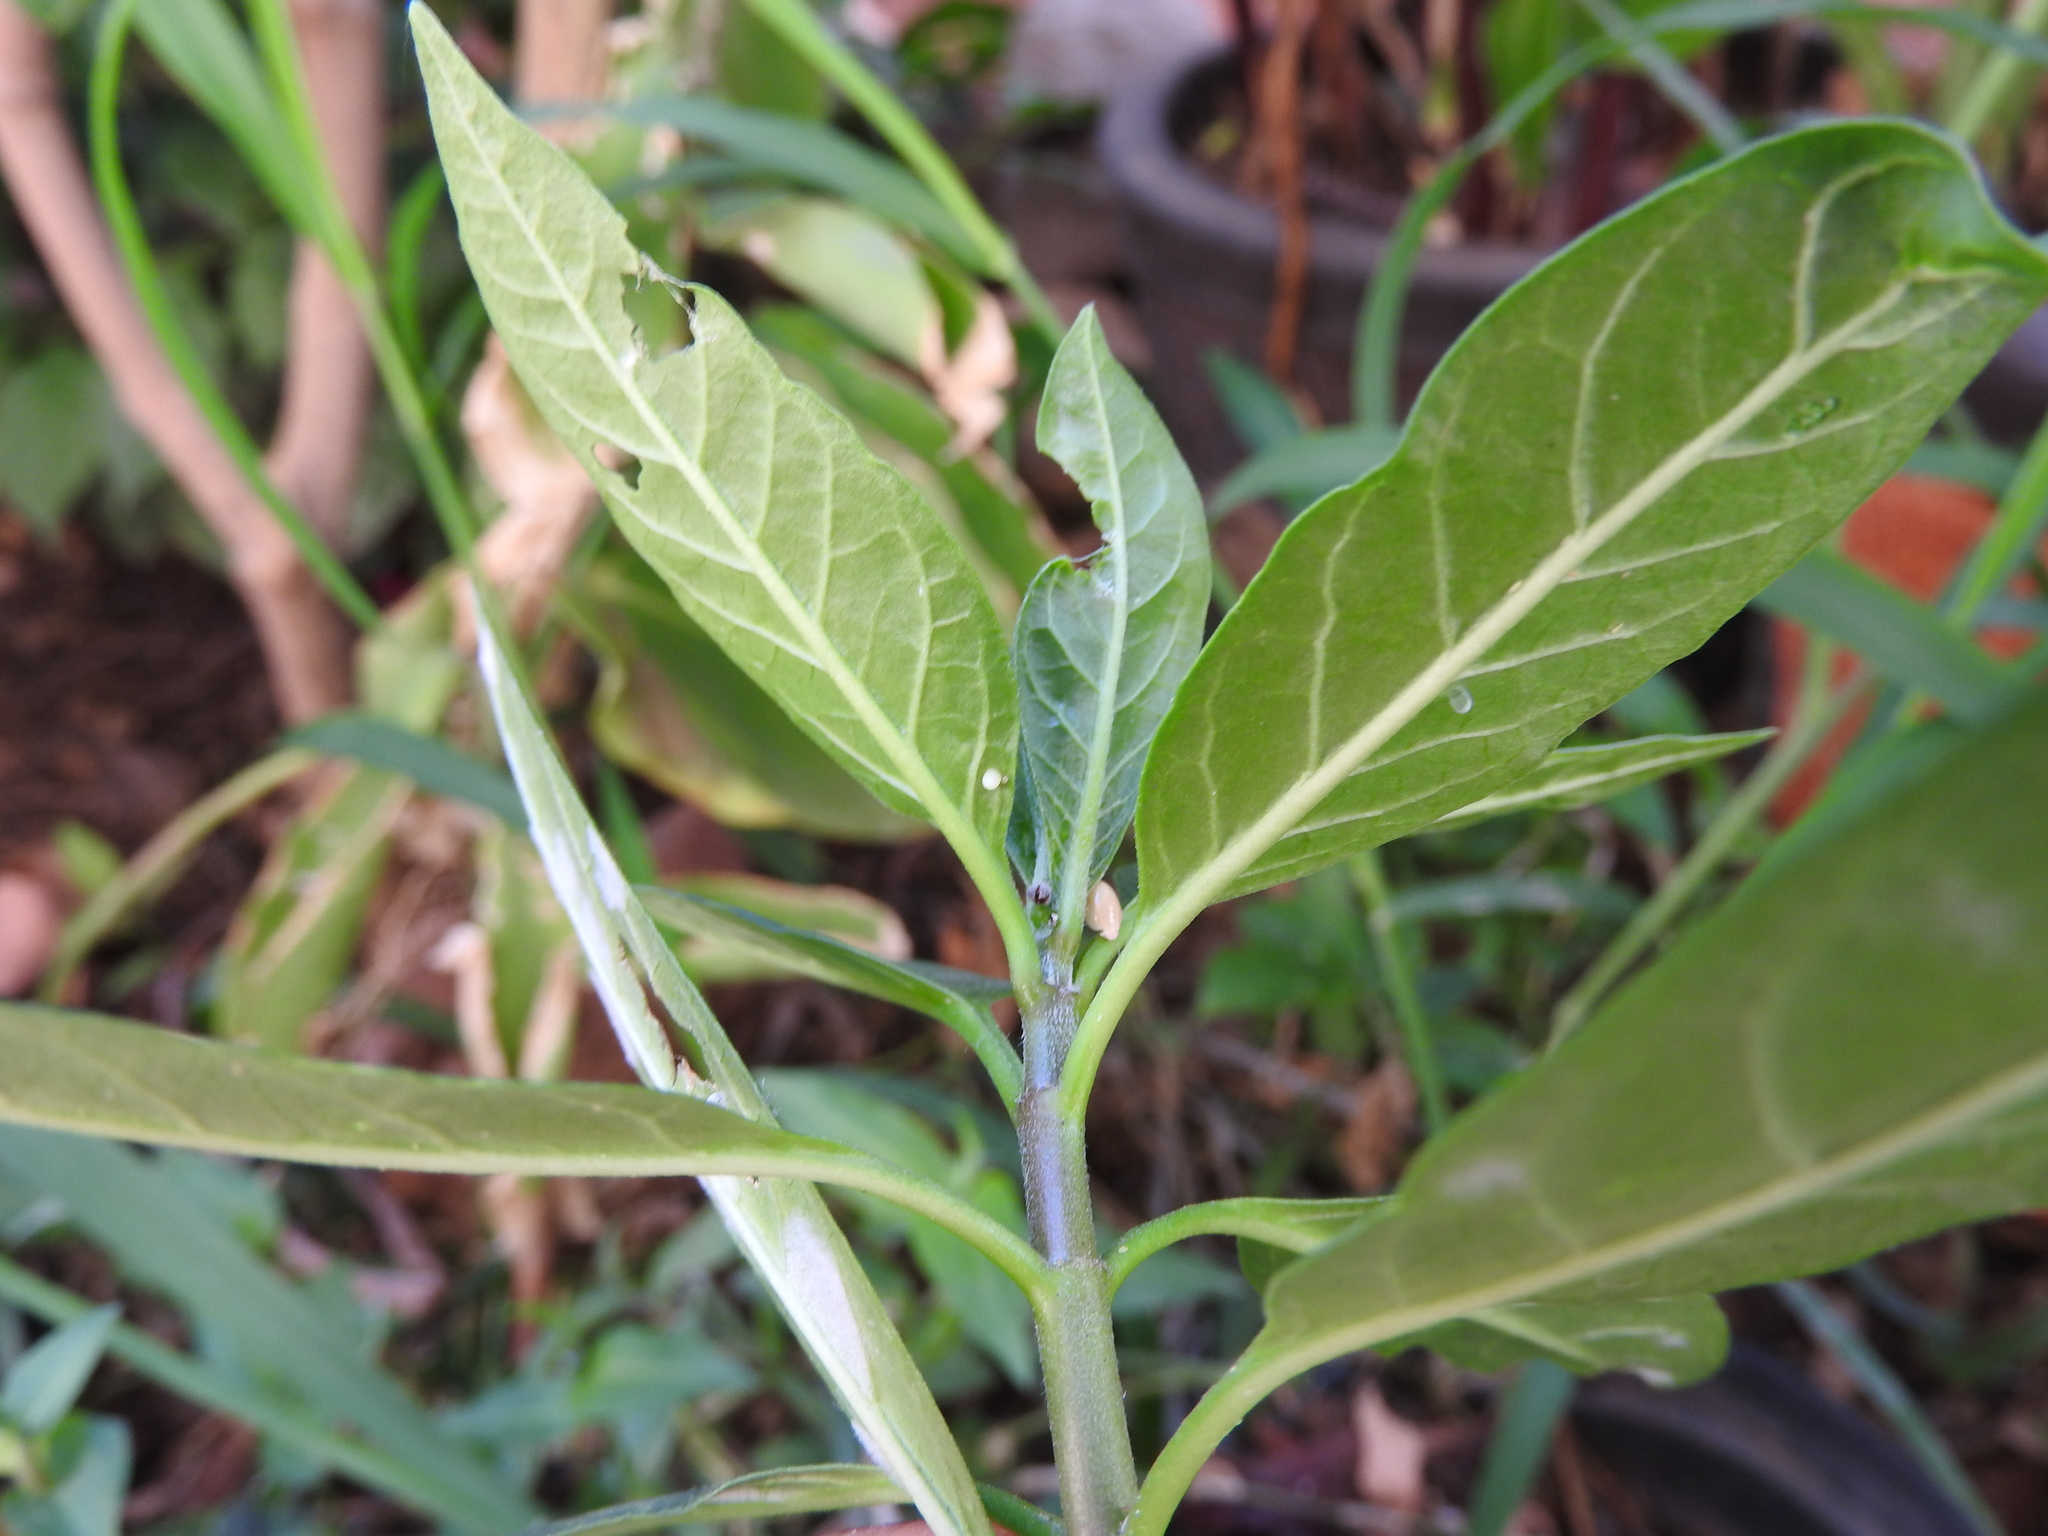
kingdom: Animalia
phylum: Arthropoda
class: Insecta
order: Lepidoptera
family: Nymphalidae
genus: Danaus
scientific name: Danaus plexippus
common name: Monarch
